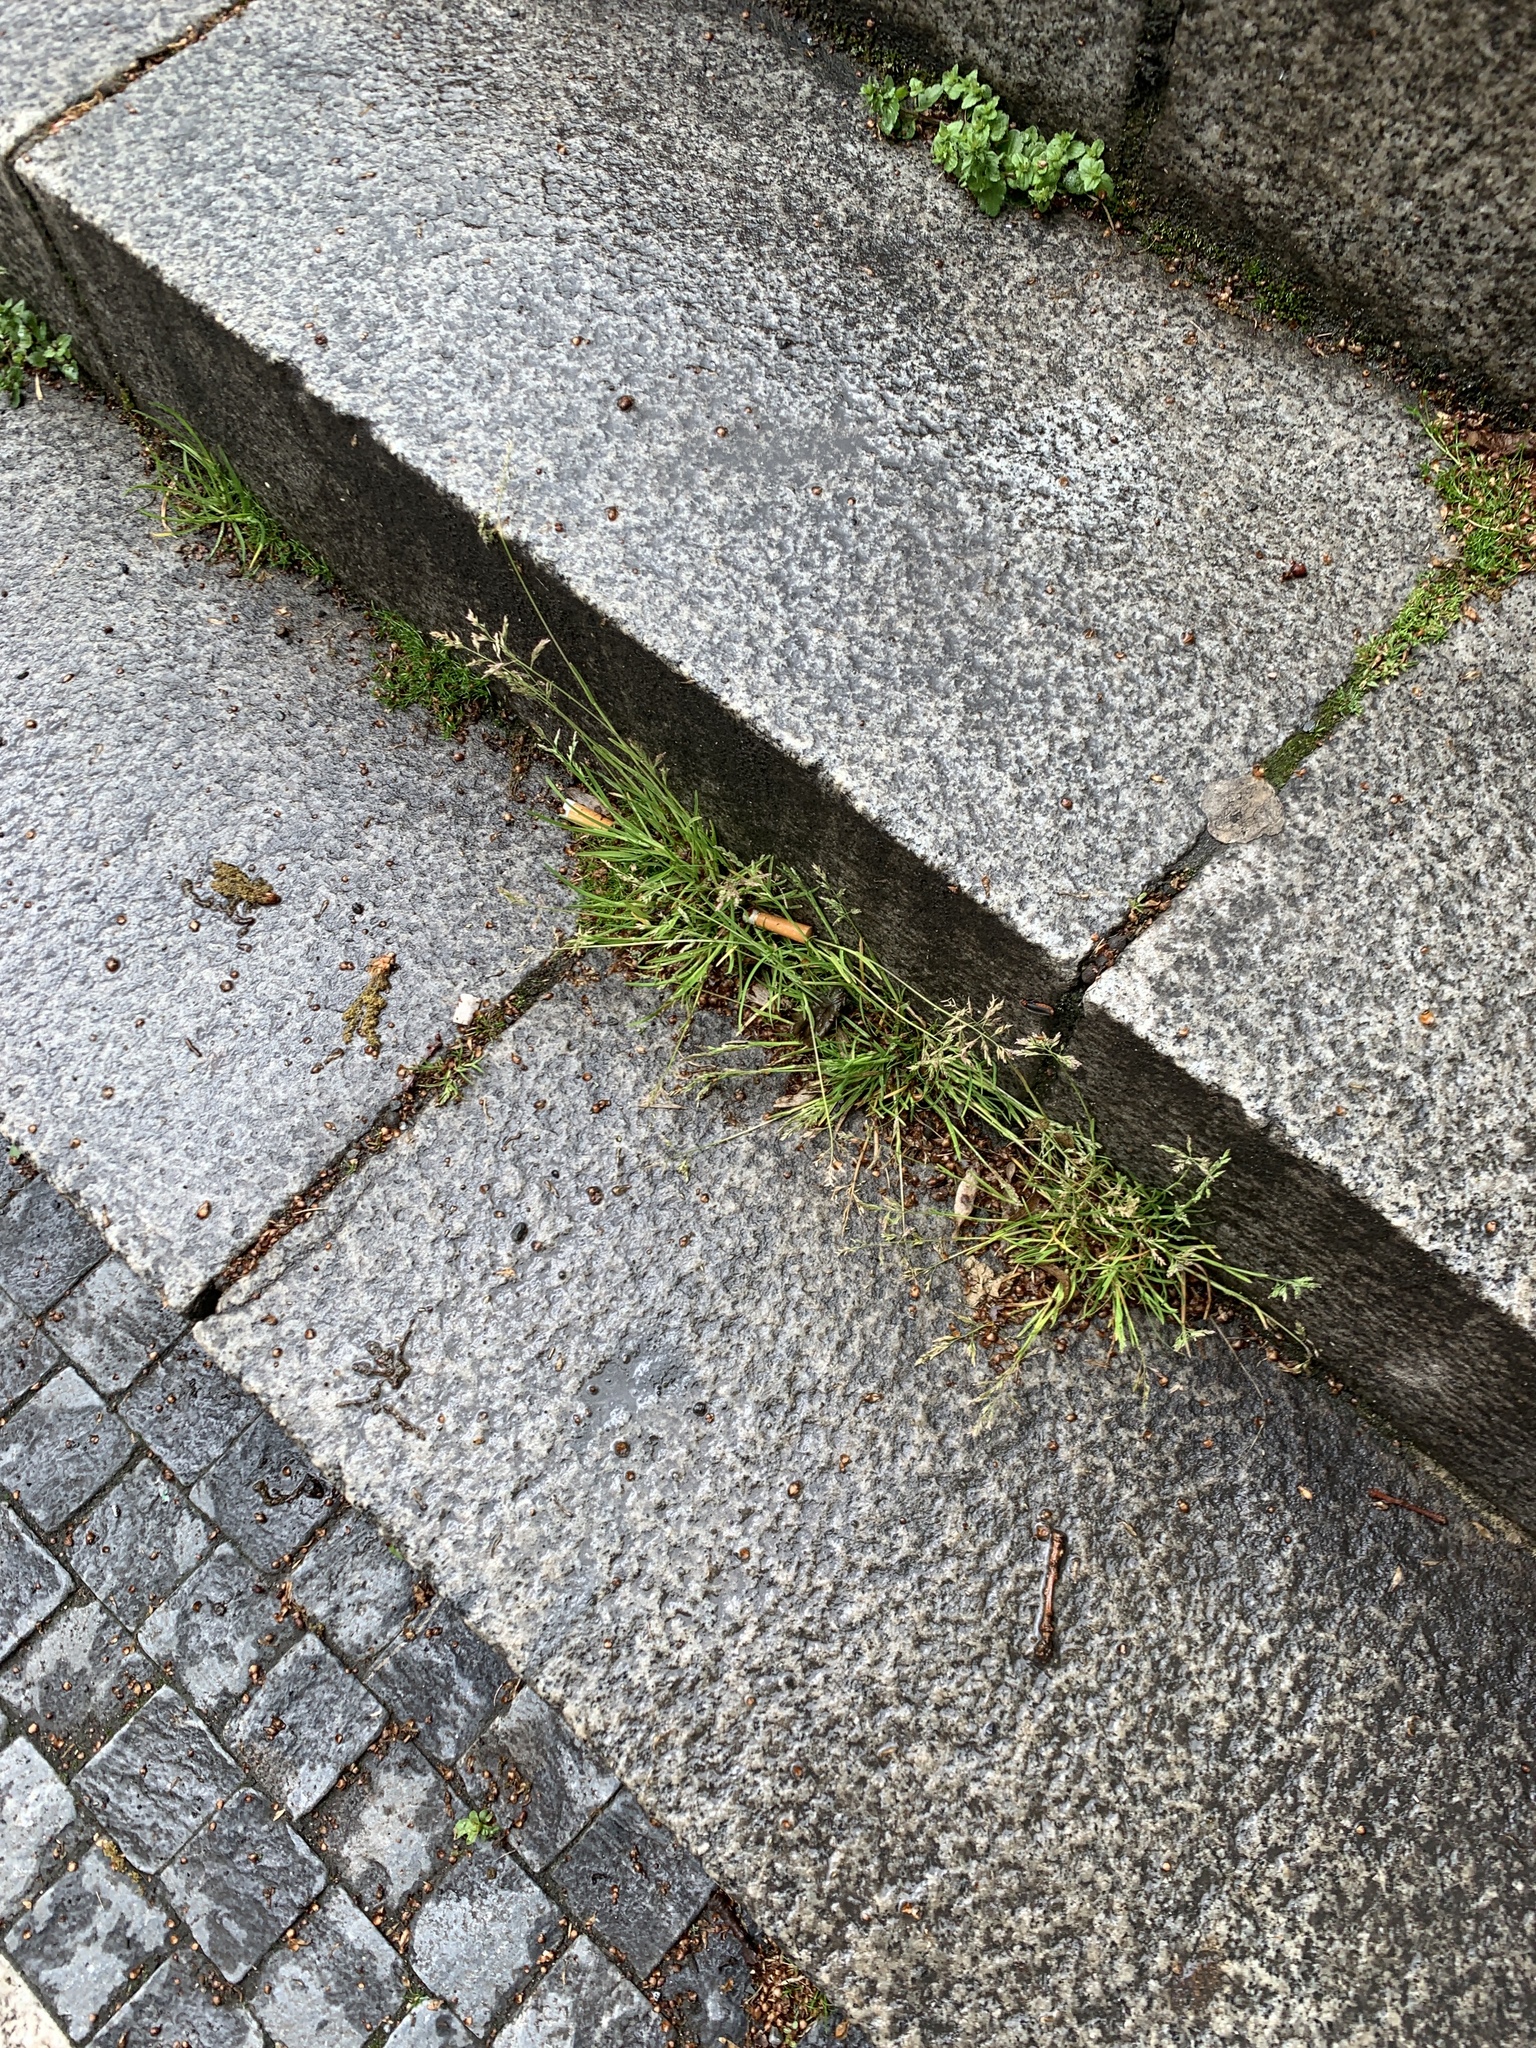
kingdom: Plantae
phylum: Tracheophyta
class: Liliopsida
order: Poales
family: Poaceae
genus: Poa
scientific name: Poa annua
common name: Annual bluegrass
